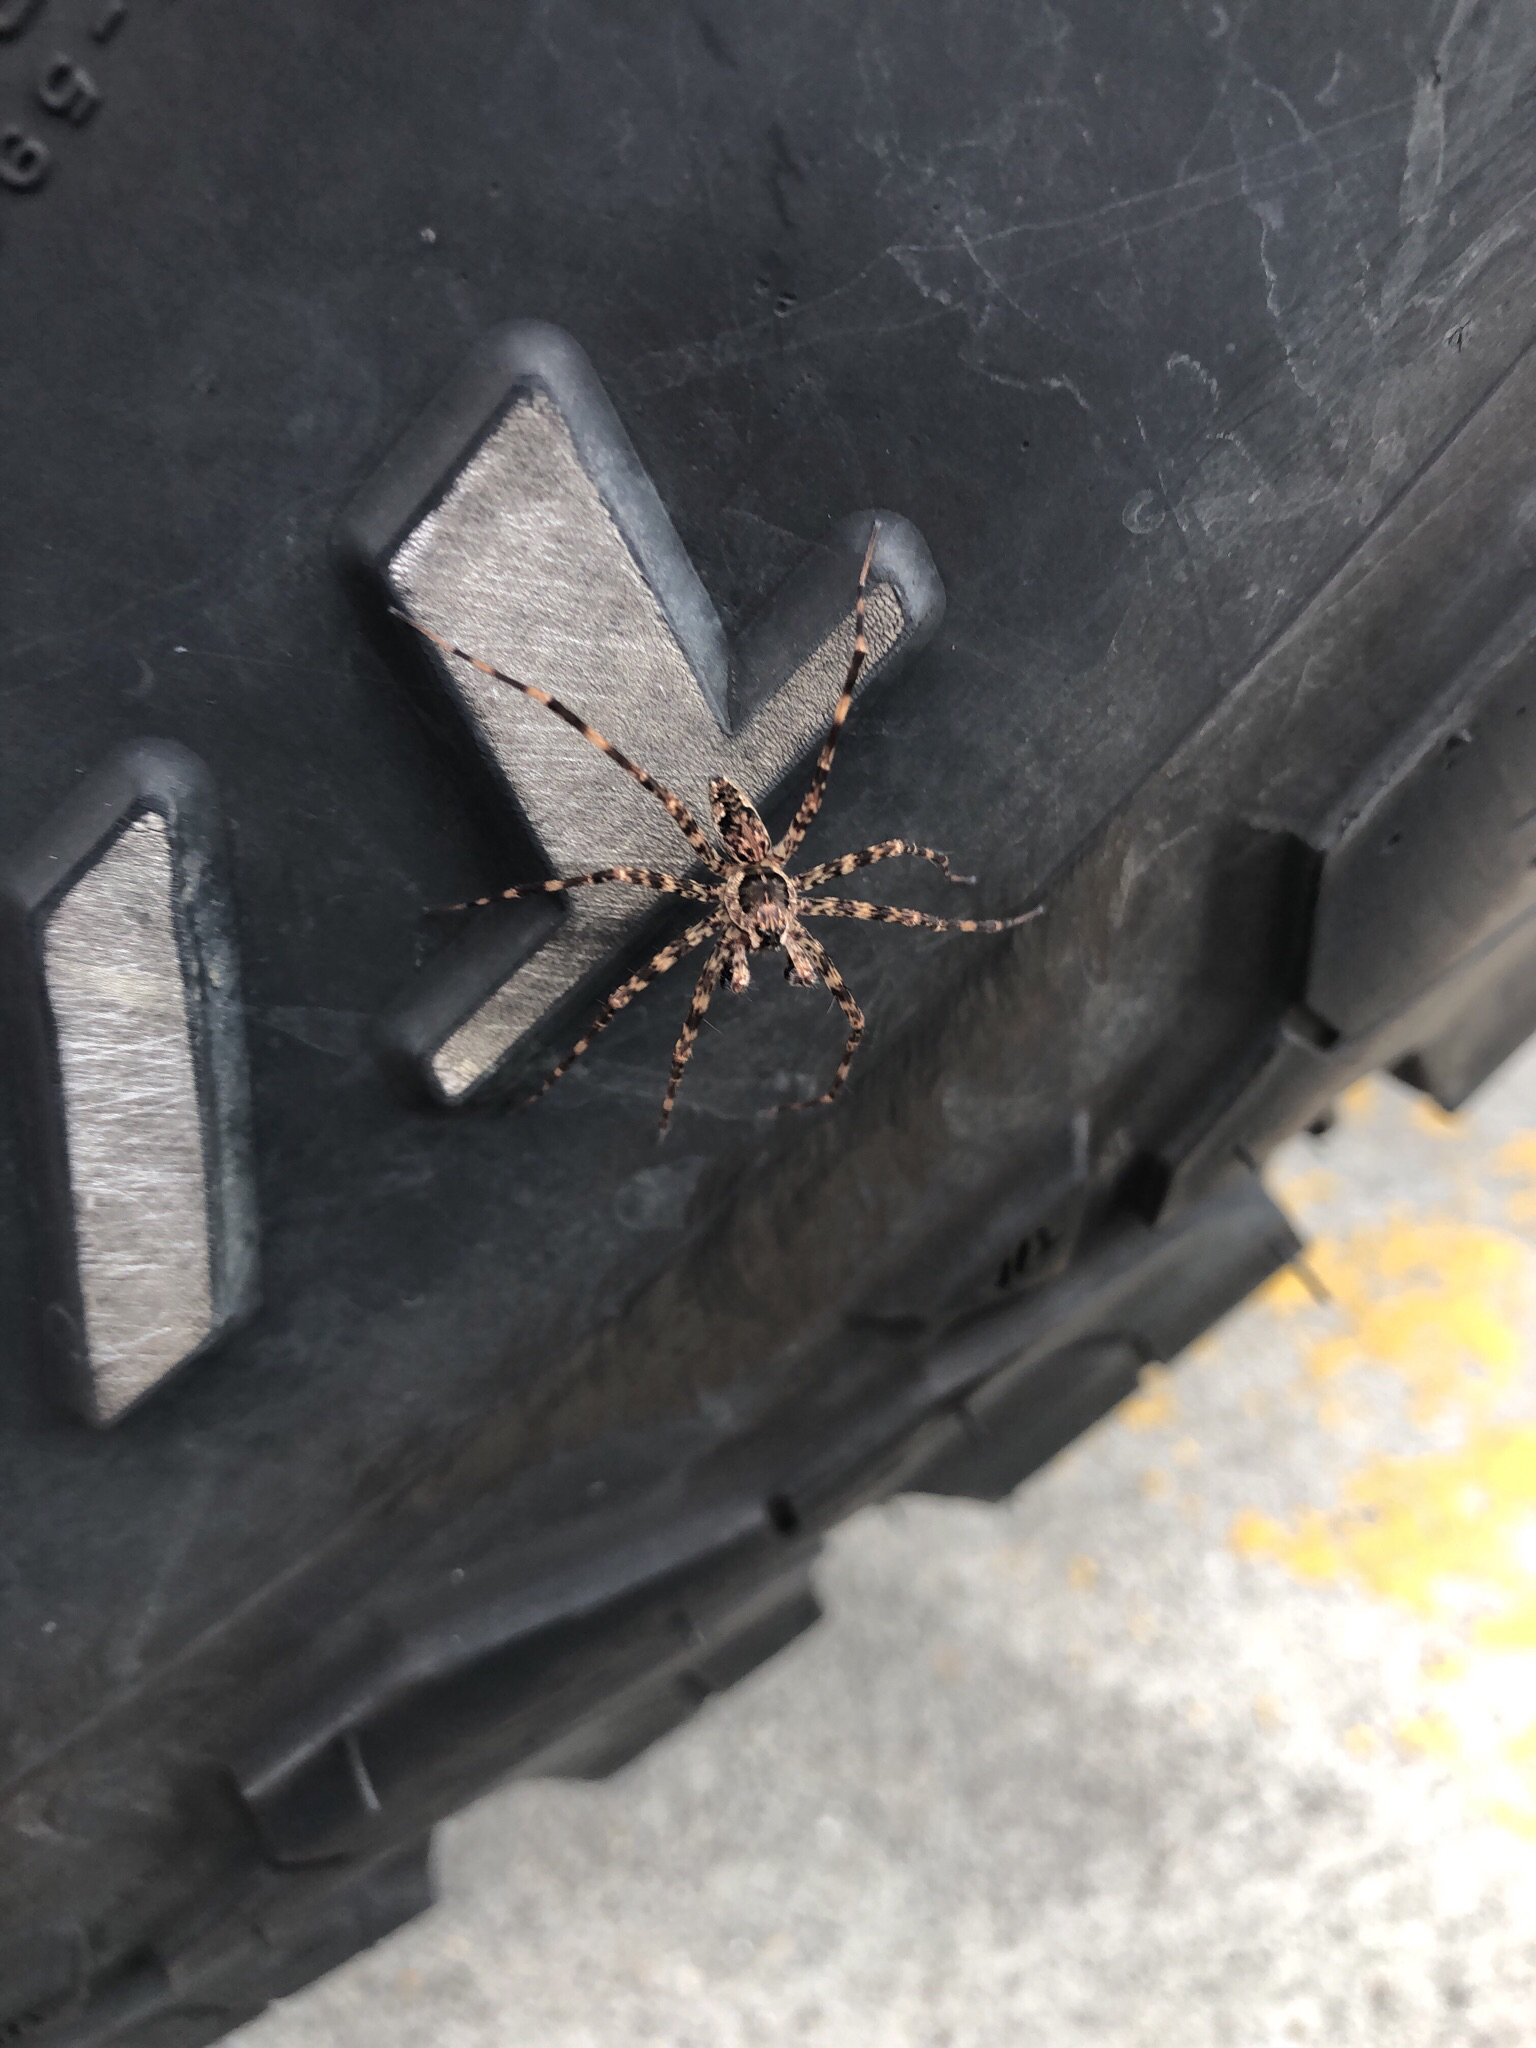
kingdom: Animalia
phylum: Arthropoda
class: Arachnida
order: Araneae
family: Pisauridae
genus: Dolomedes
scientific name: Dolomedes tenebrosus
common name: Dark fishing spider
